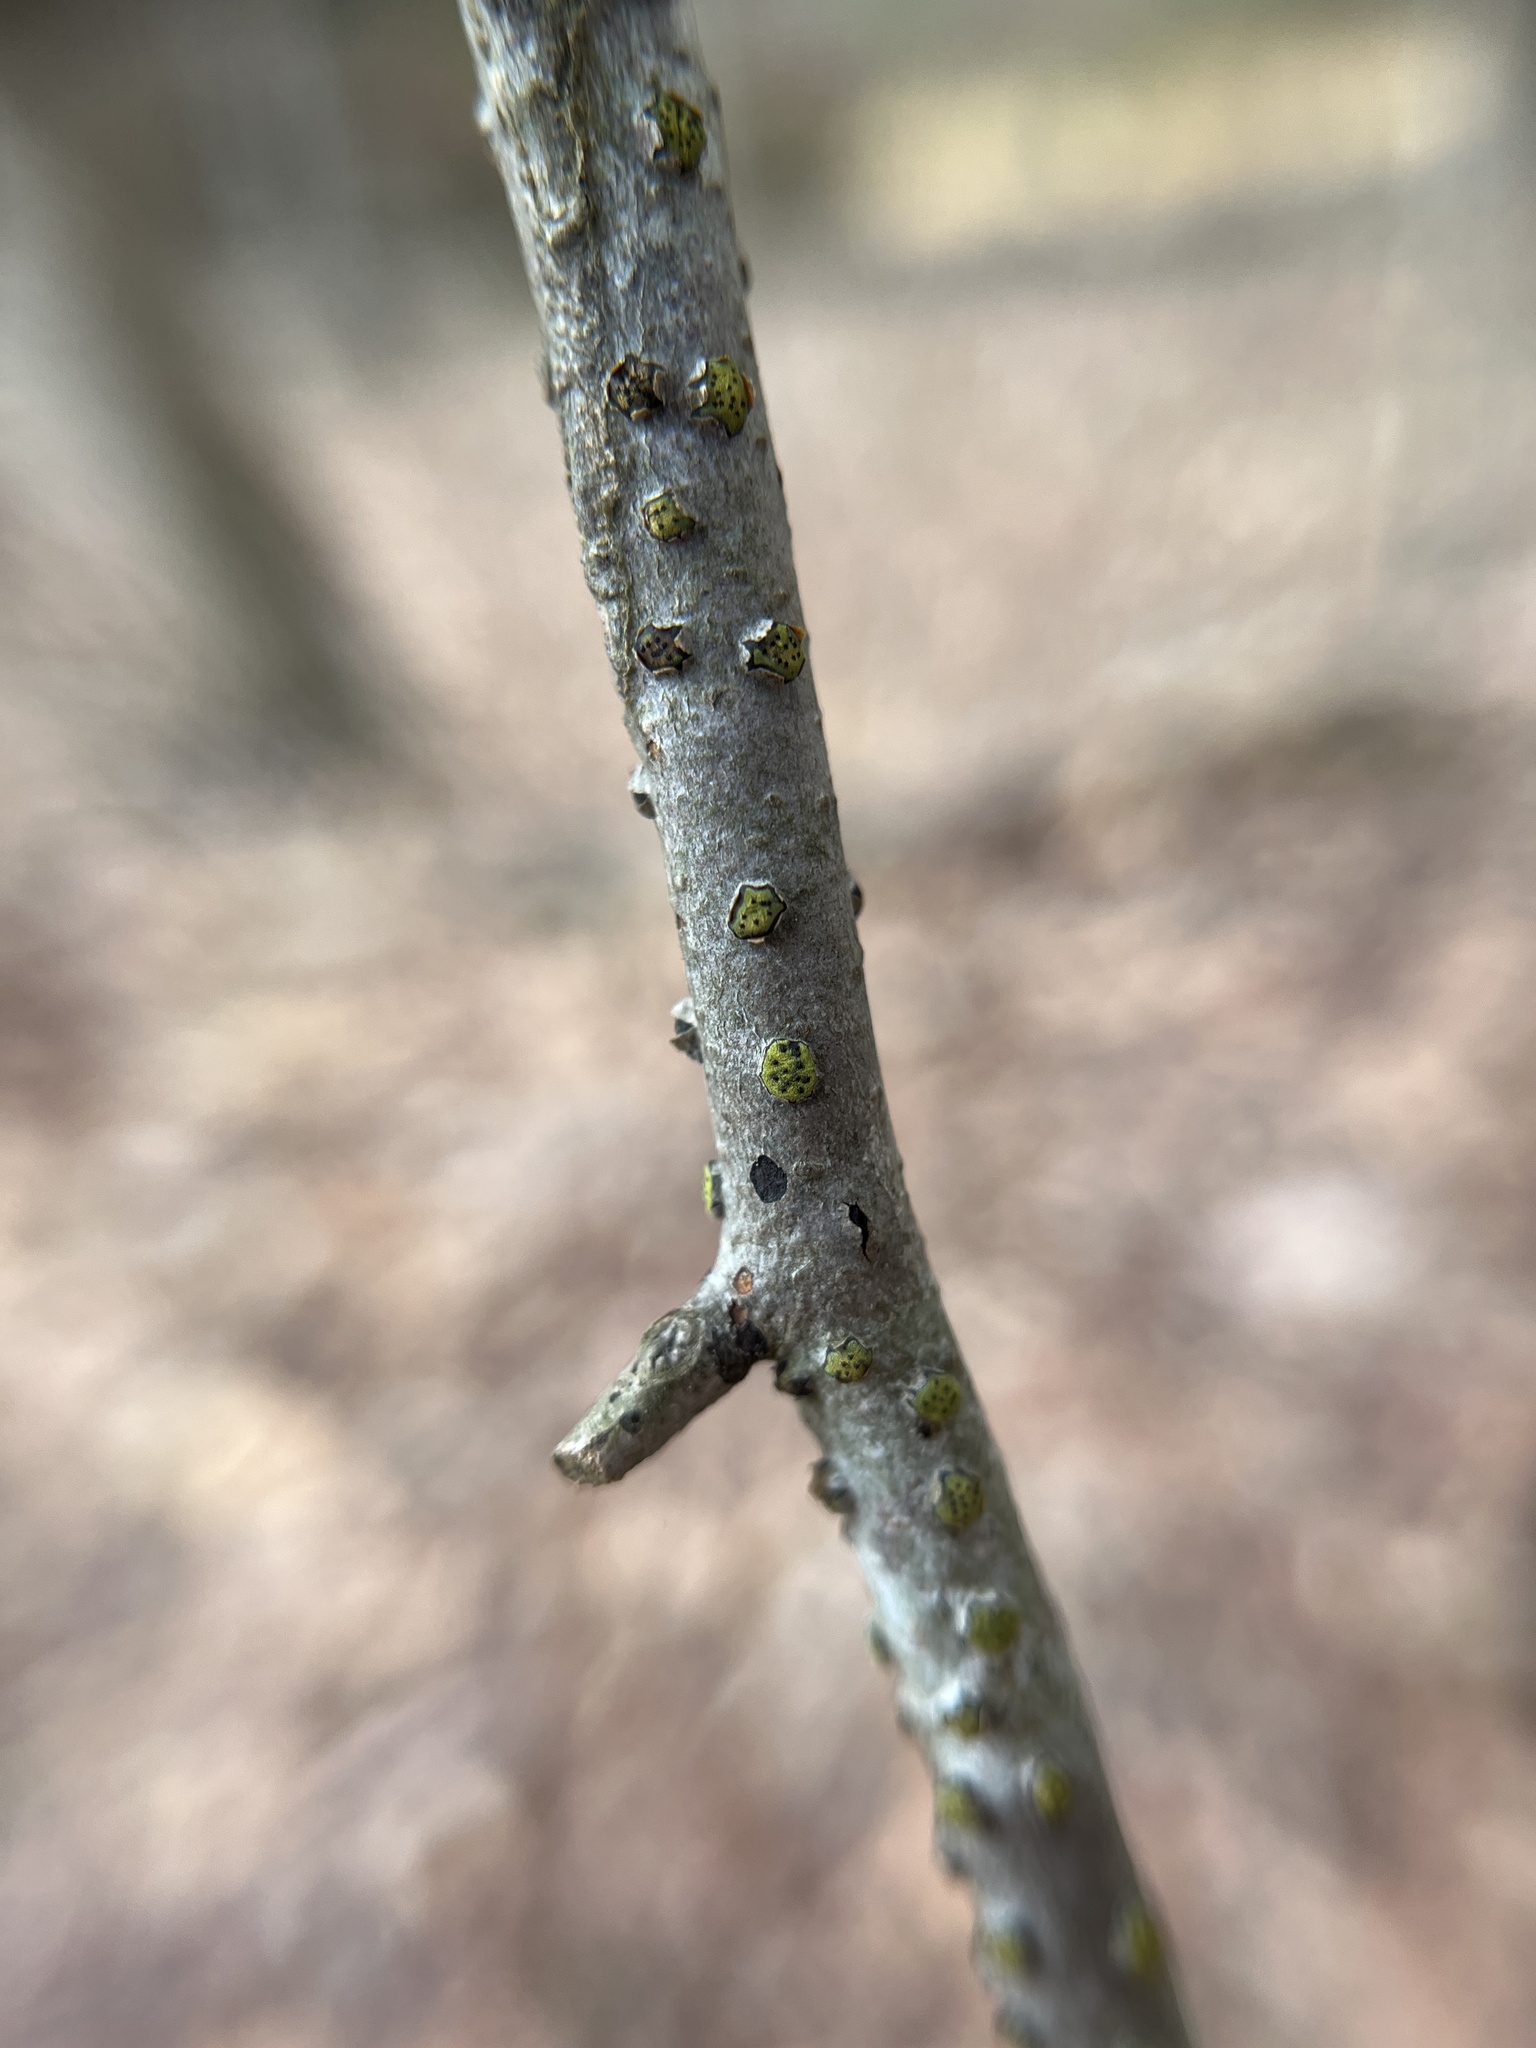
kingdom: Fungi
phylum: Ascomycota
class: Sordariomycetes
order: Xylariales
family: Diatrypaceae
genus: Diatrype
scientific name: Diatrype virescens
